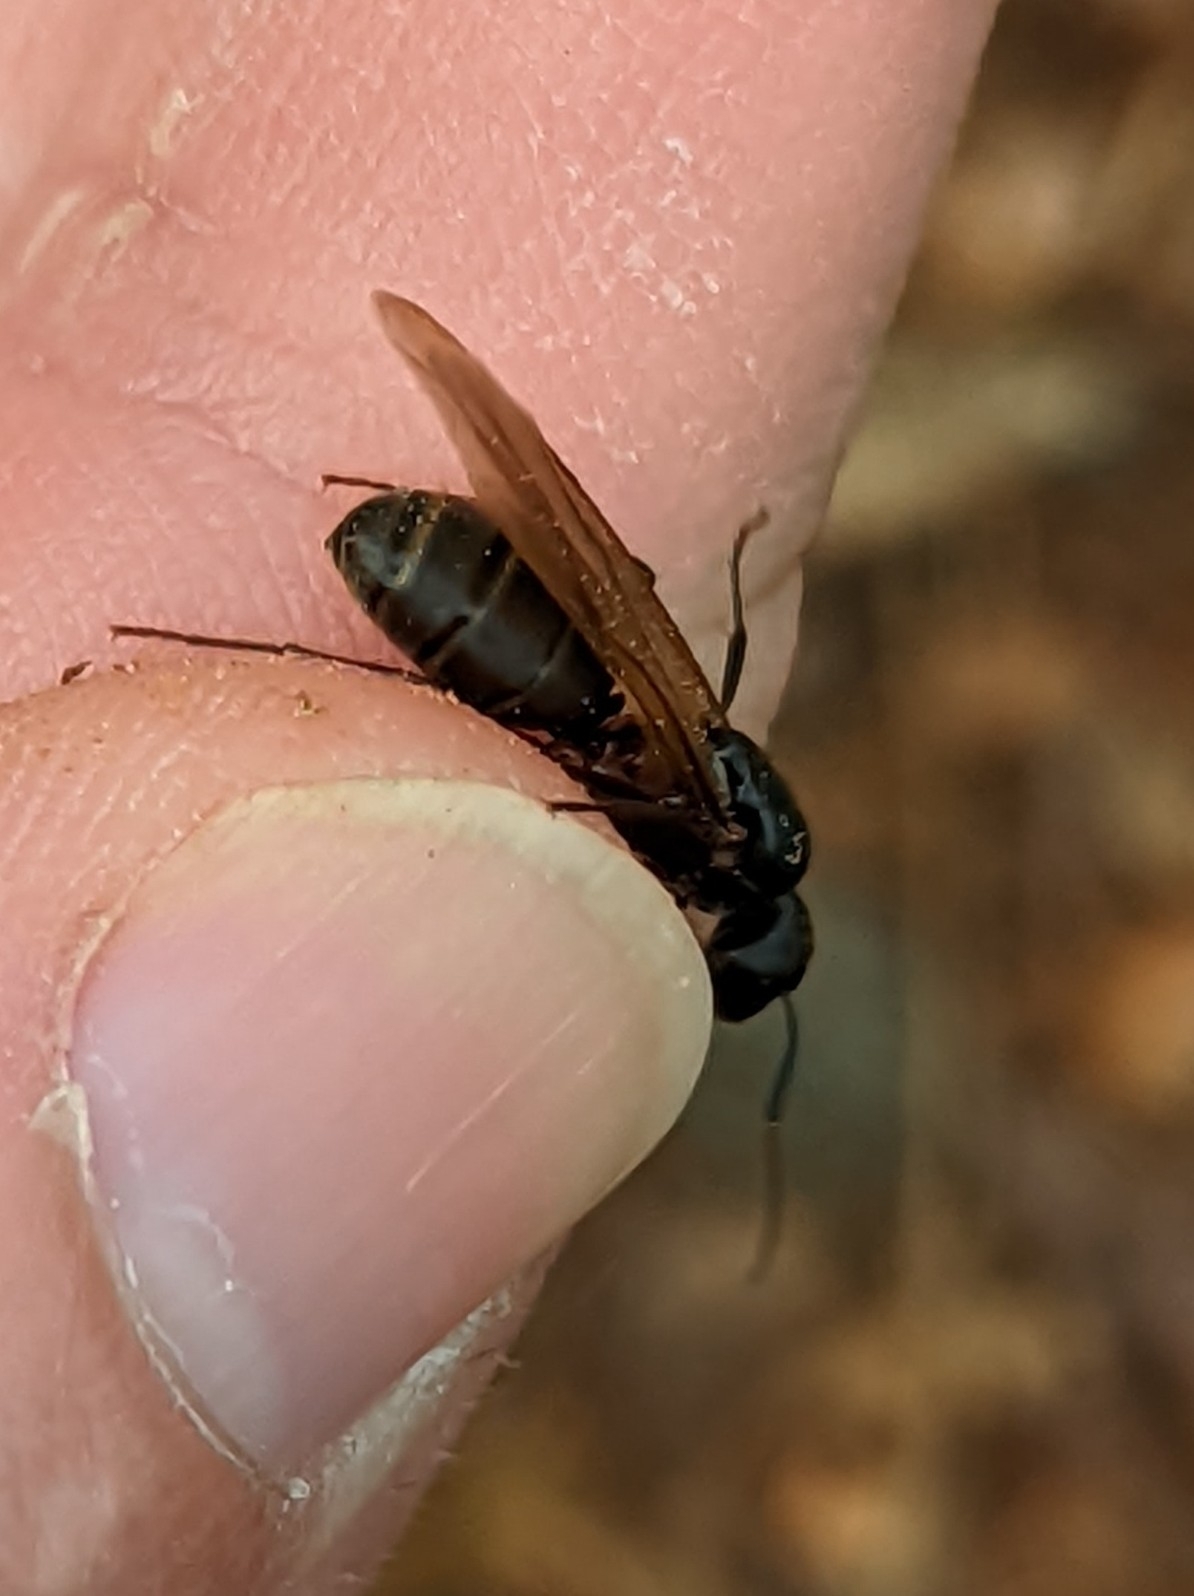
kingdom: Animalia
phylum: Arthropoda
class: Insecta
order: Hymenoptera
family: Formicidae
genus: Camponotus
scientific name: Camponotus chromaiodes
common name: Red carpenter ant
